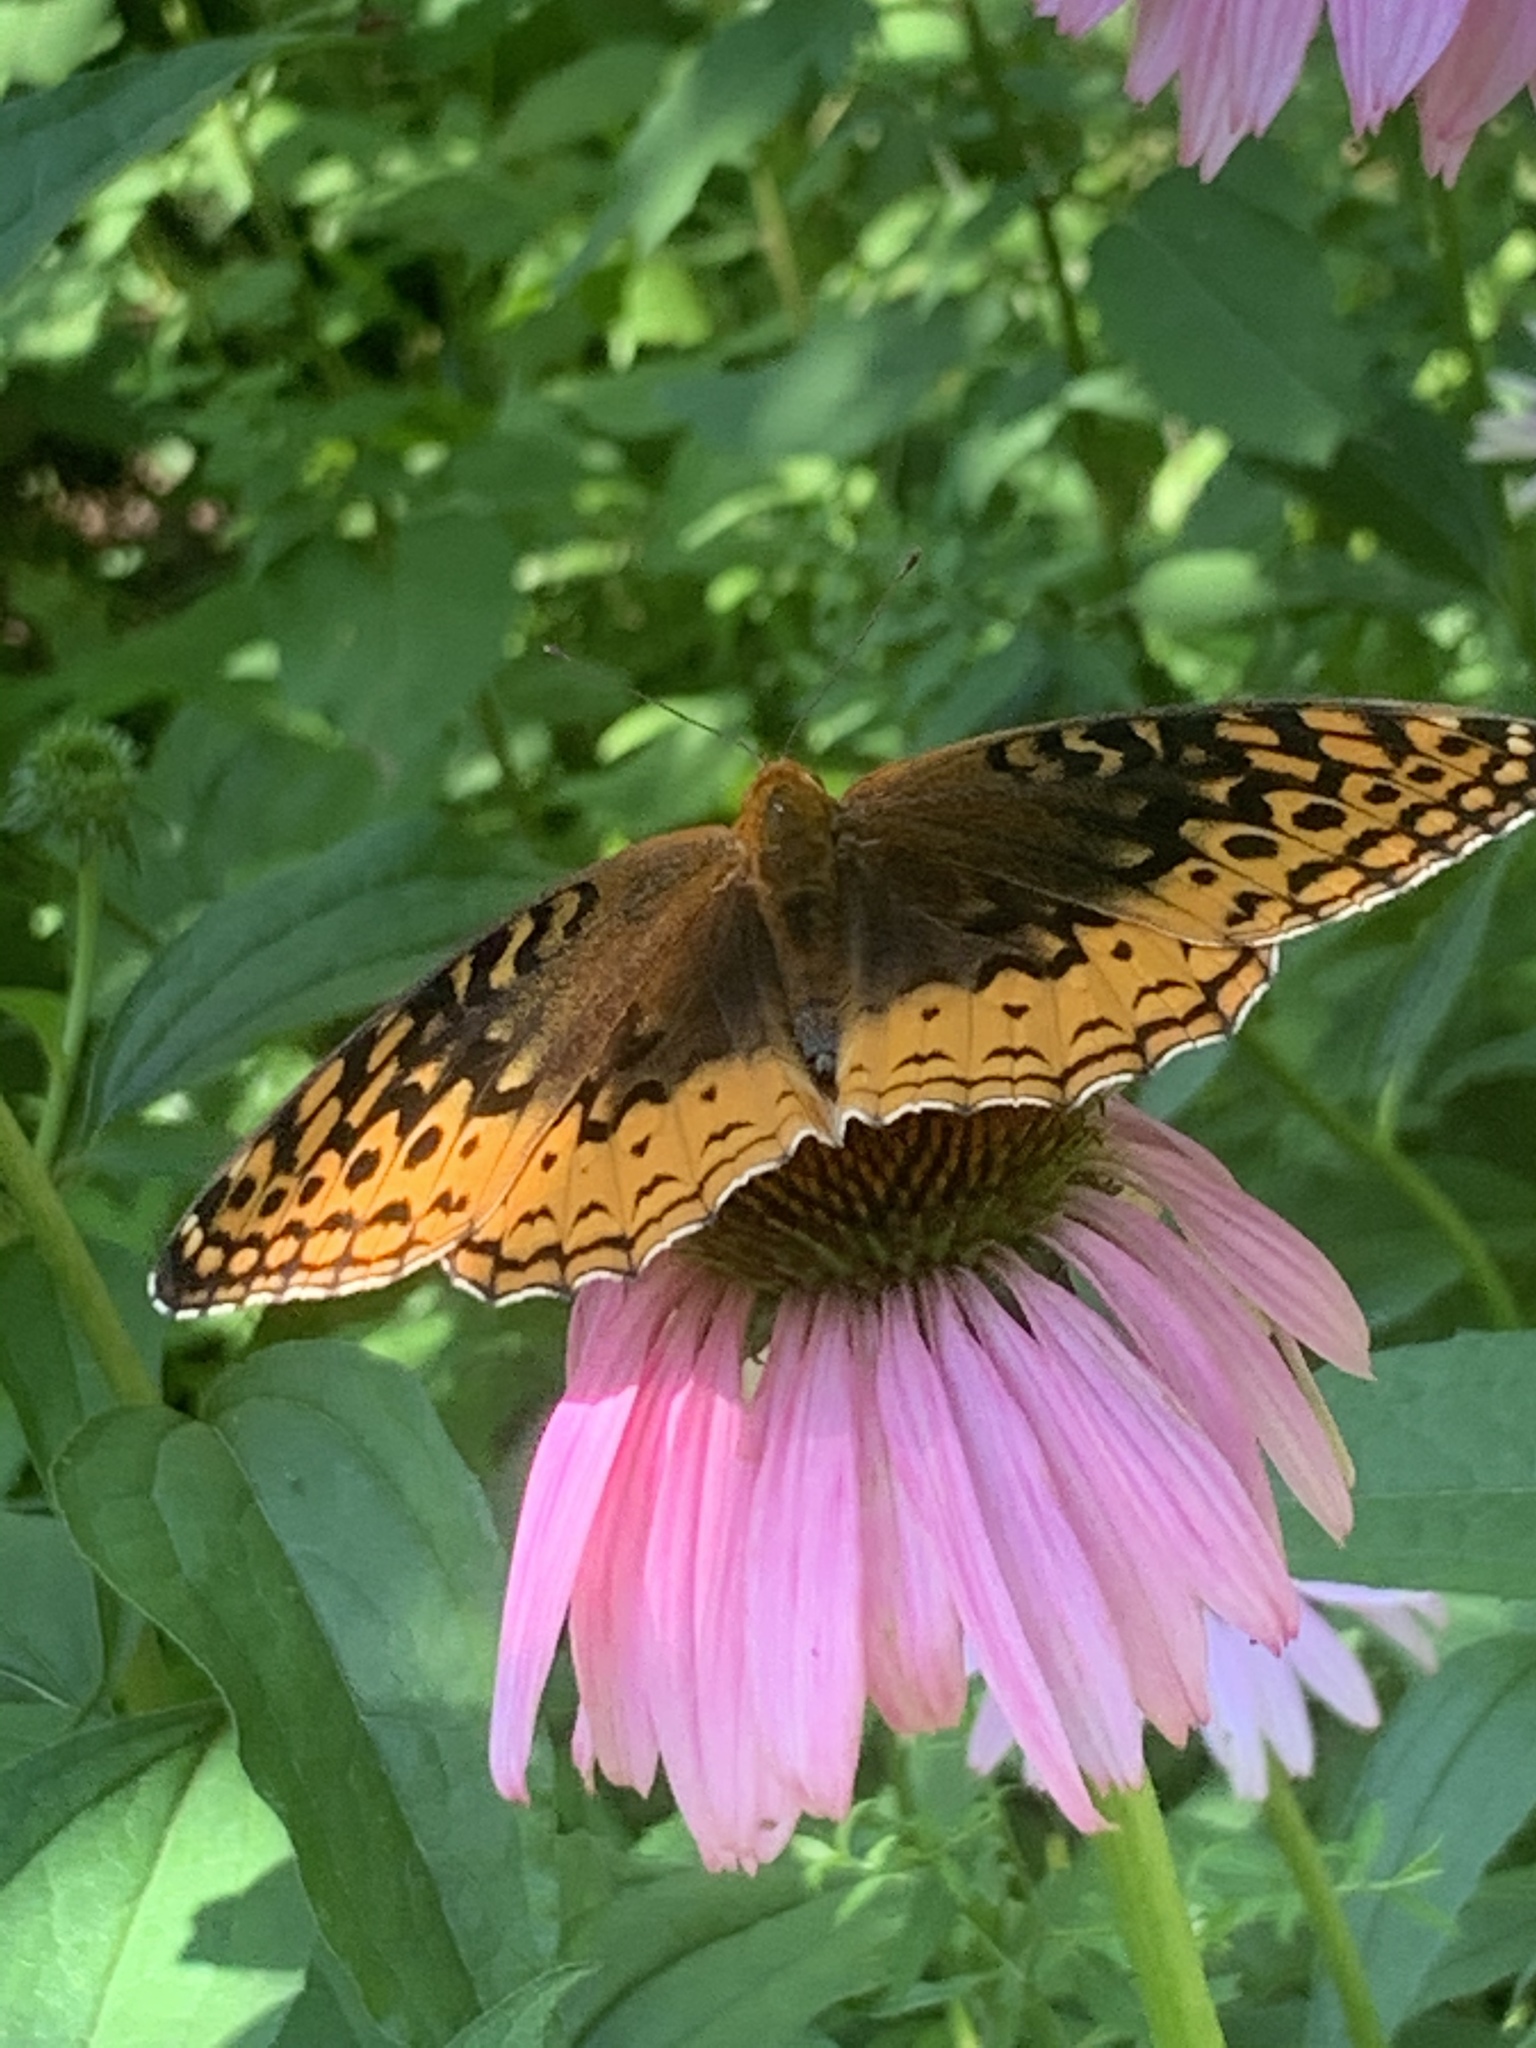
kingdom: Animalia
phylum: Arthropoda
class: Insecta
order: Lepidoptera
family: Nymphalidae
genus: Speyeria
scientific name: Speyeria cybele
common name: Great spangled fritillary
